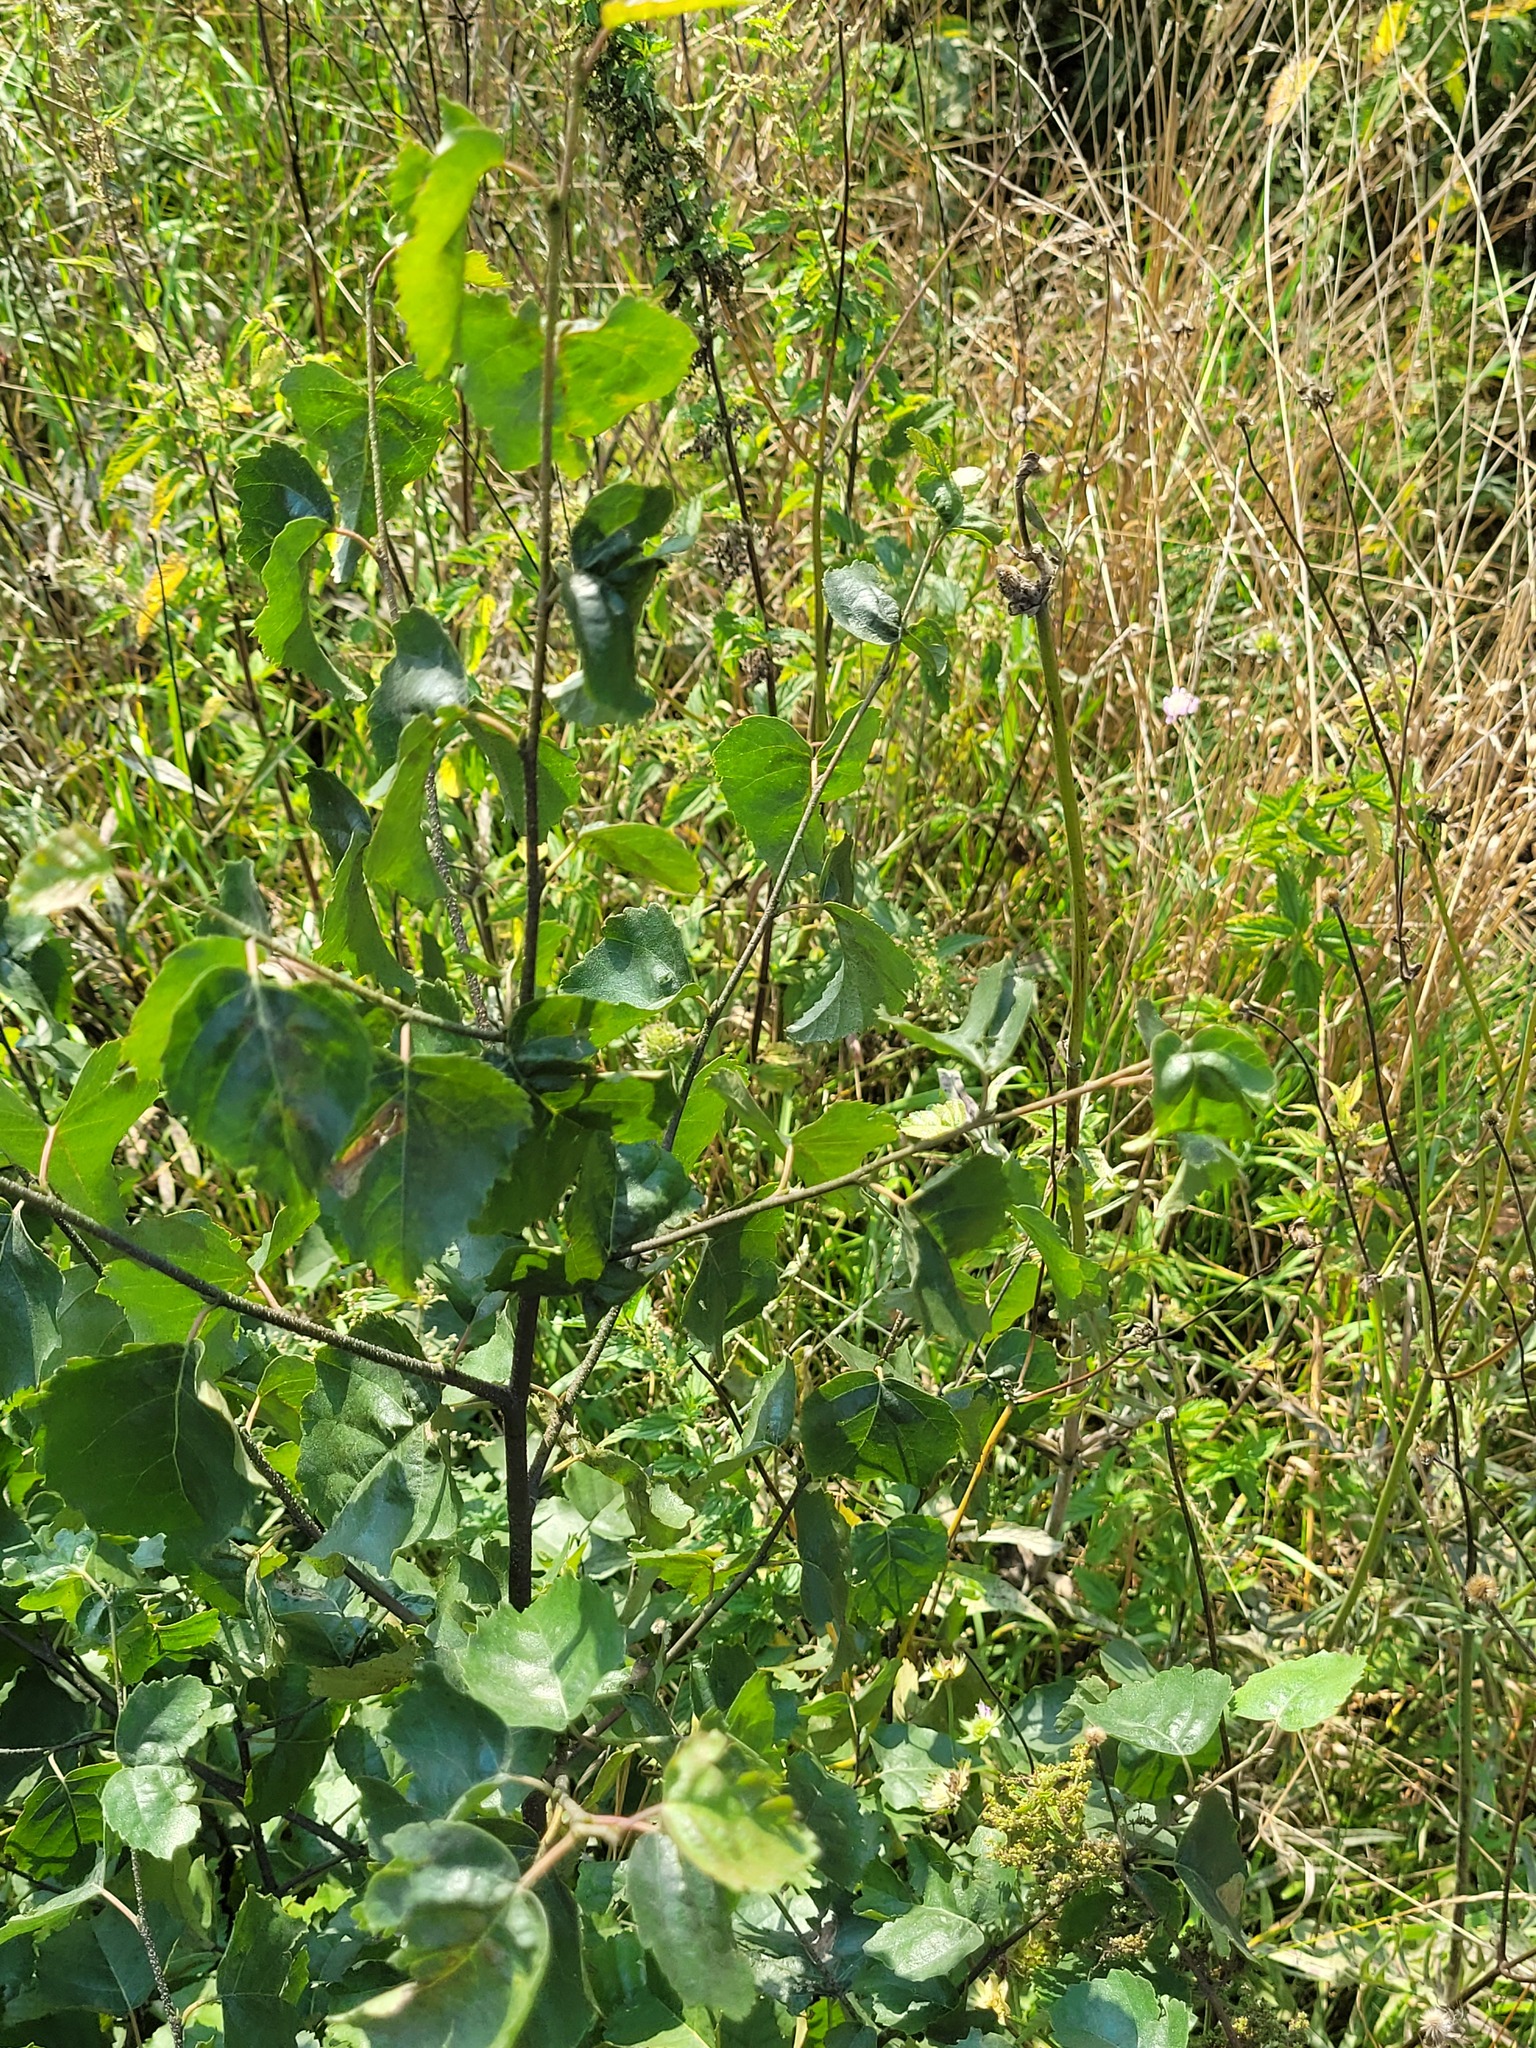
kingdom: Plantae
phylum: Tracheophyta
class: Magnoliopsida
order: Fagales
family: Betulaceae
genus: Betula
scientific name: Betula pendula
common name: Silver birch
